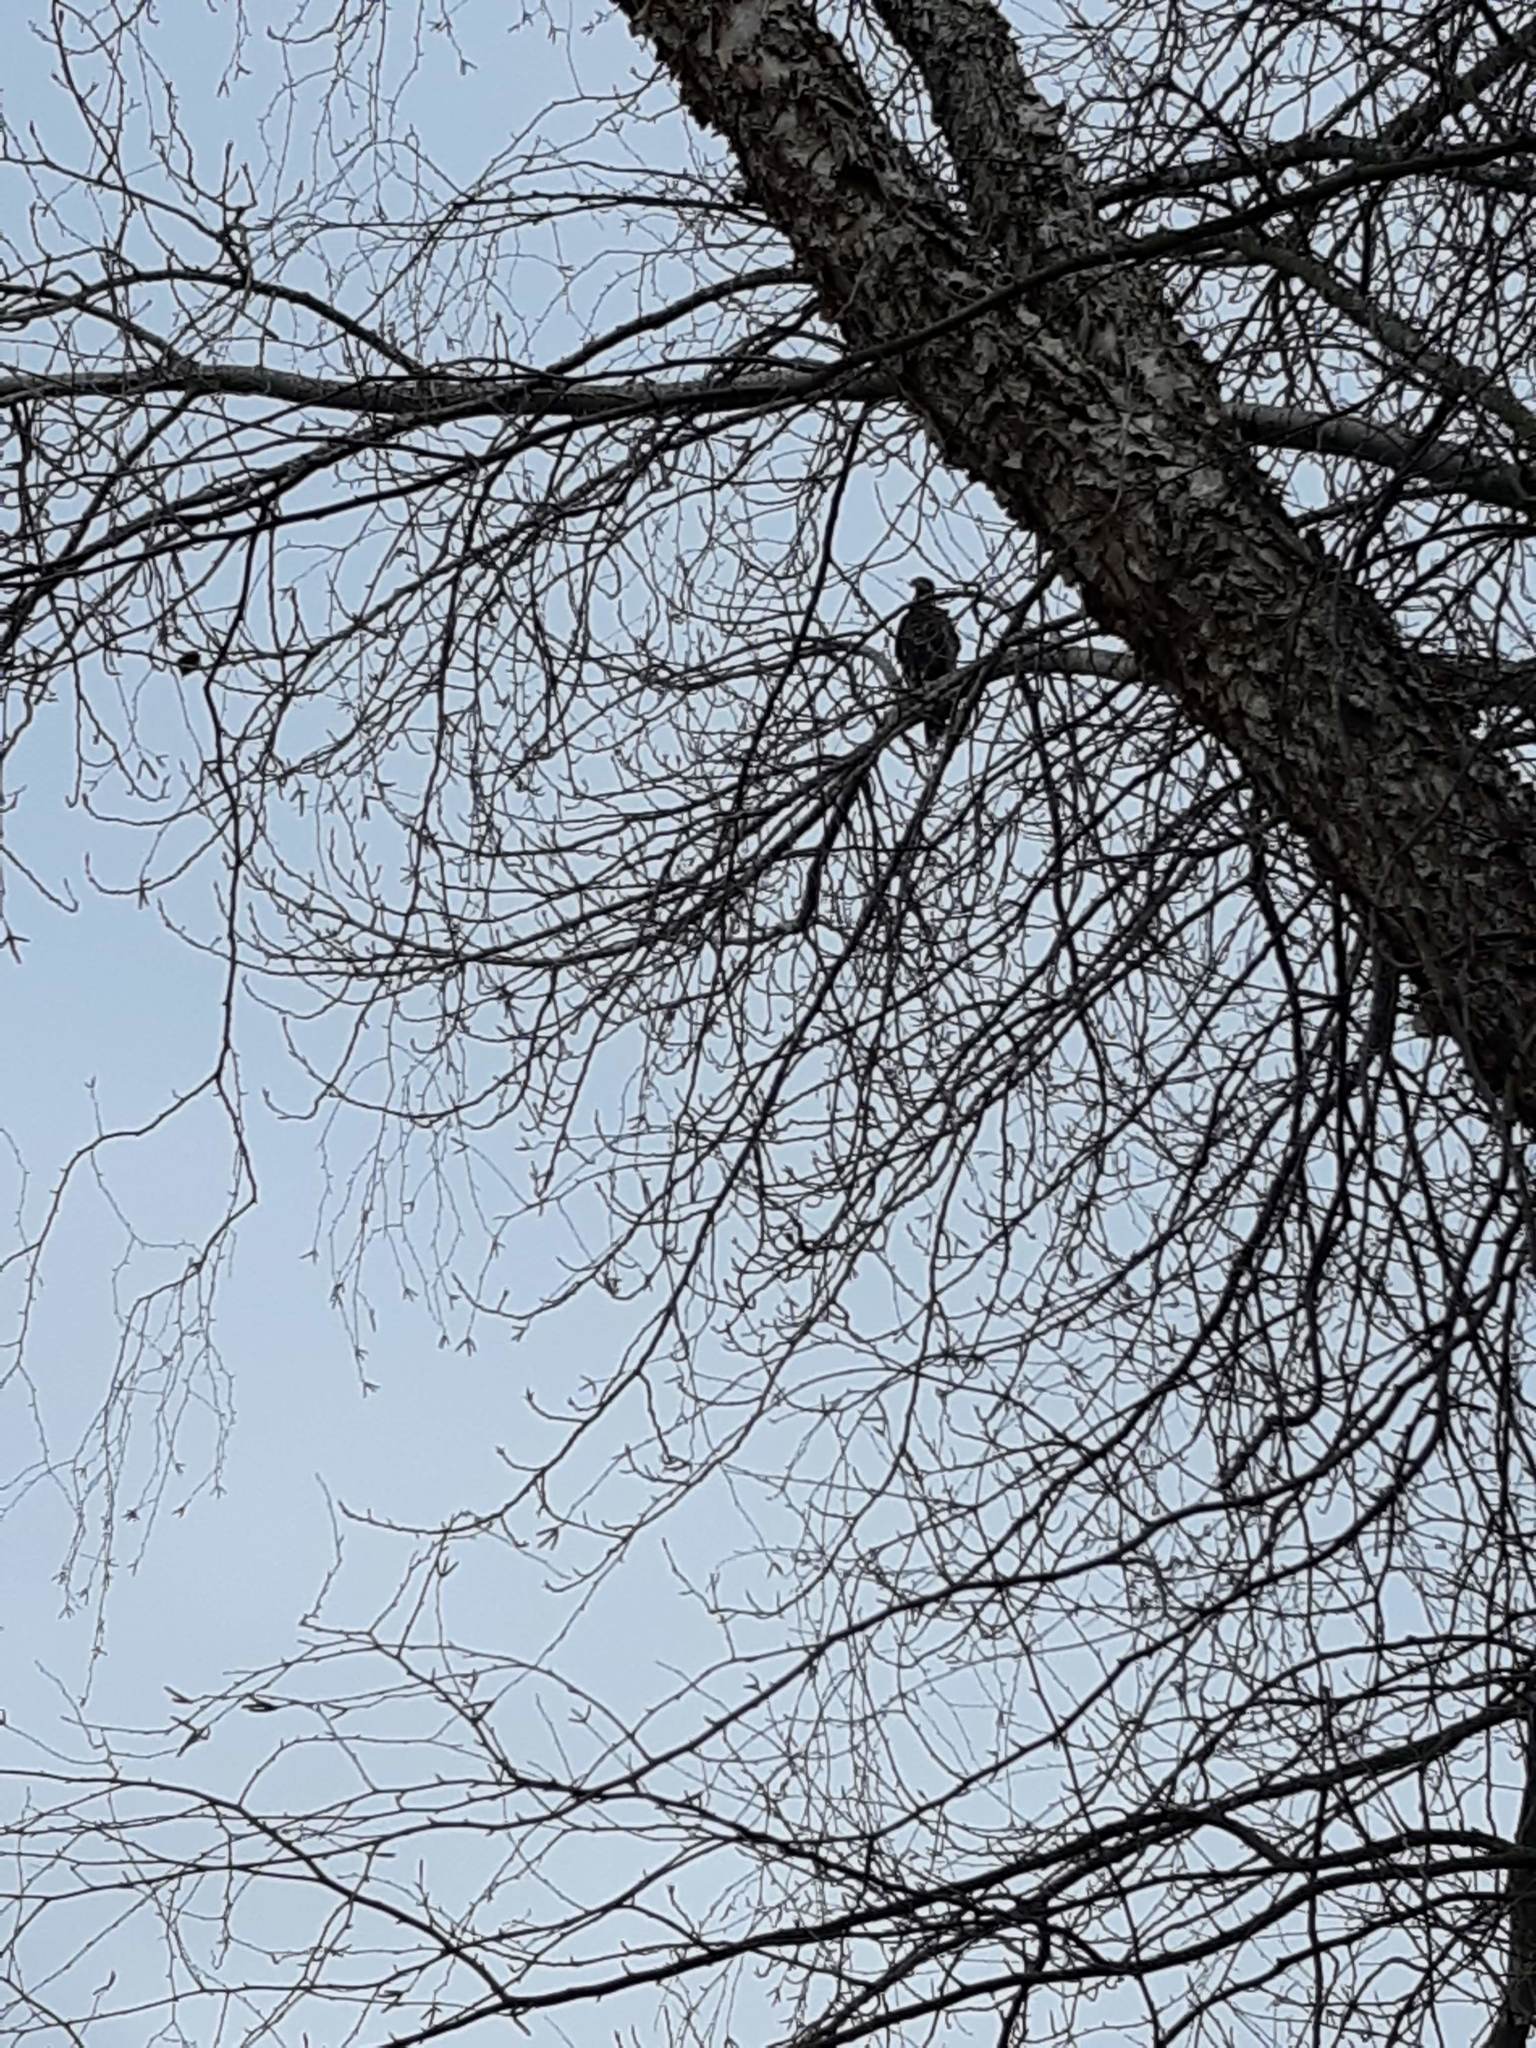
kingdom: Animalia
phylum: Chordata
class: Aves
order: Accipitriformes
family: Accipitridae
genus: Haliaeetus
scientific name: Haliaeetus leucocephalus
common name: Bald eagle
